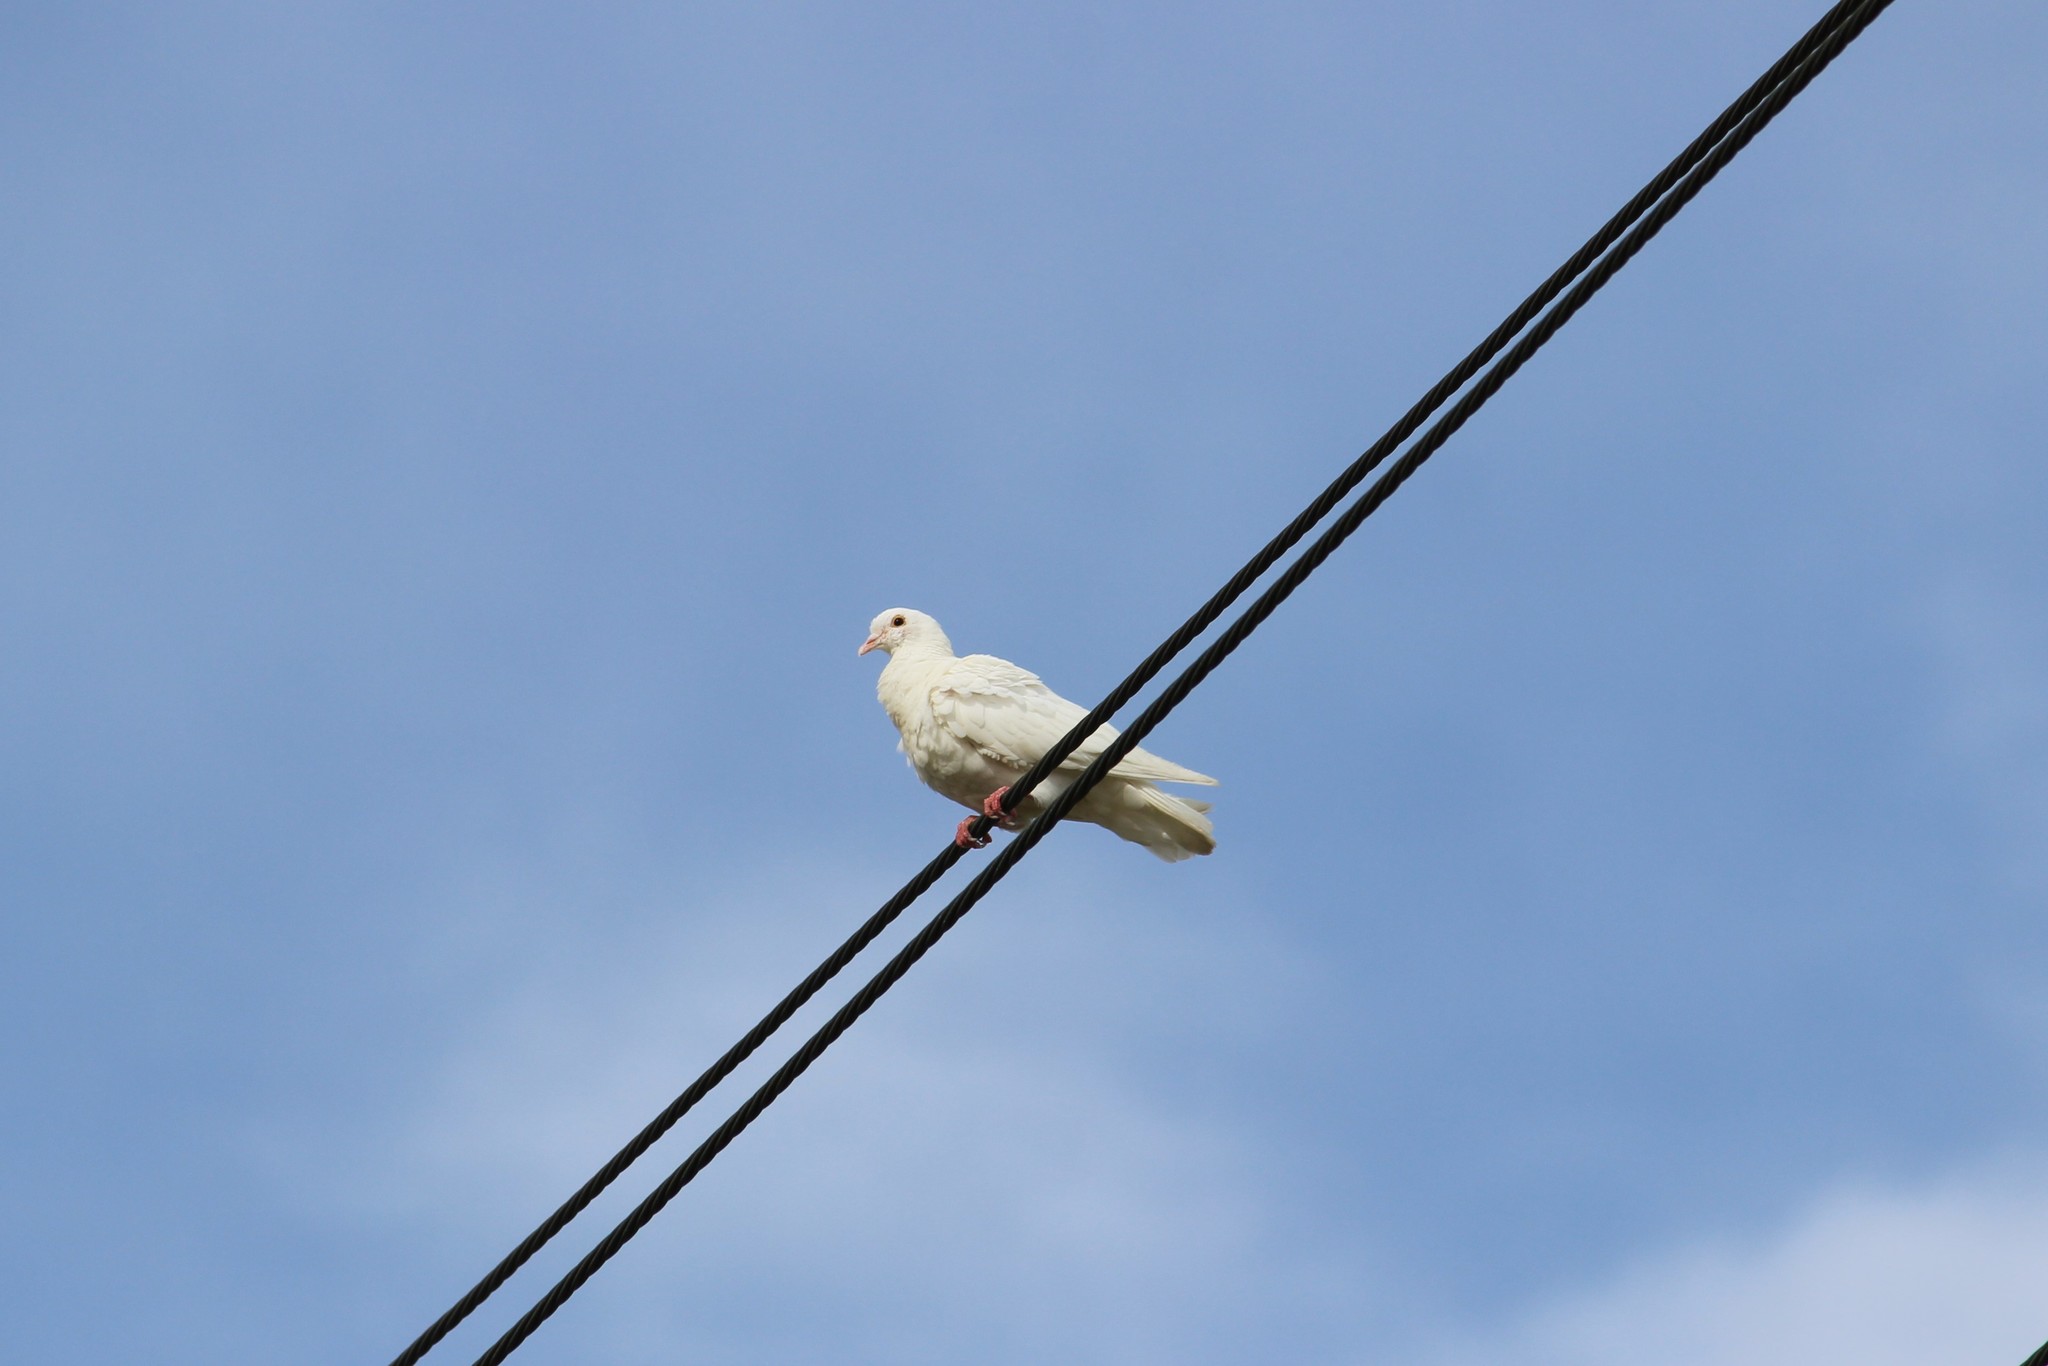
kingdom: Animalia
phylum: Chordata
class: Aves
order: Columbiformes
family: Columbidae
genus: Columba
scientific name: Columba livia
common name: Rock pigeon
